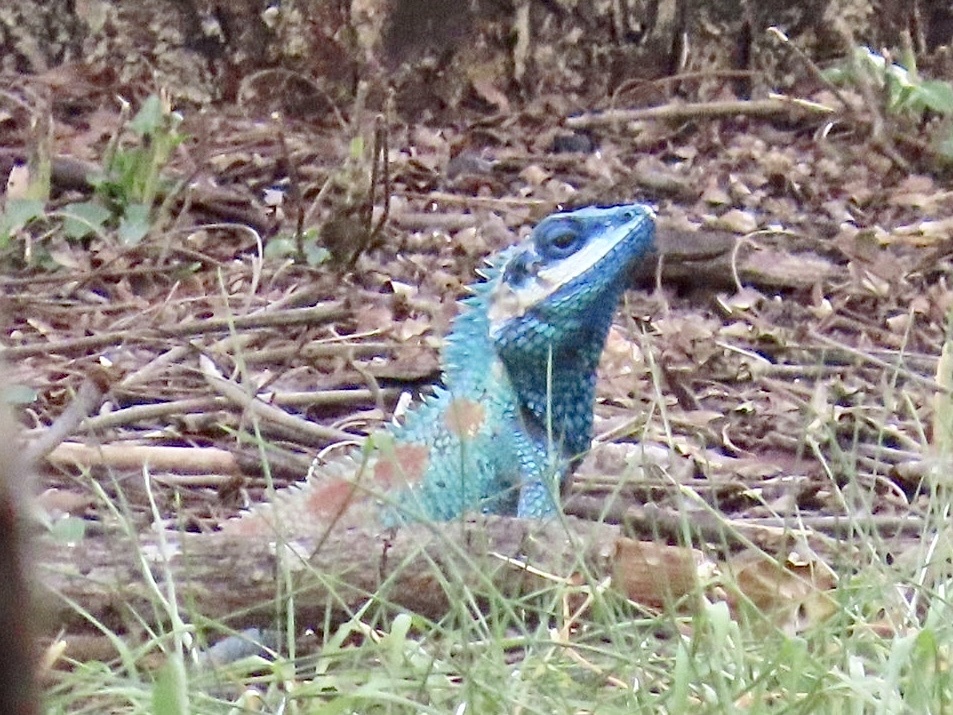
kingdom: Animalia
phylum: Chordata
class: Squamata
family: Agamidae
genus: Calotes
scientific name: Calotes goetzi
